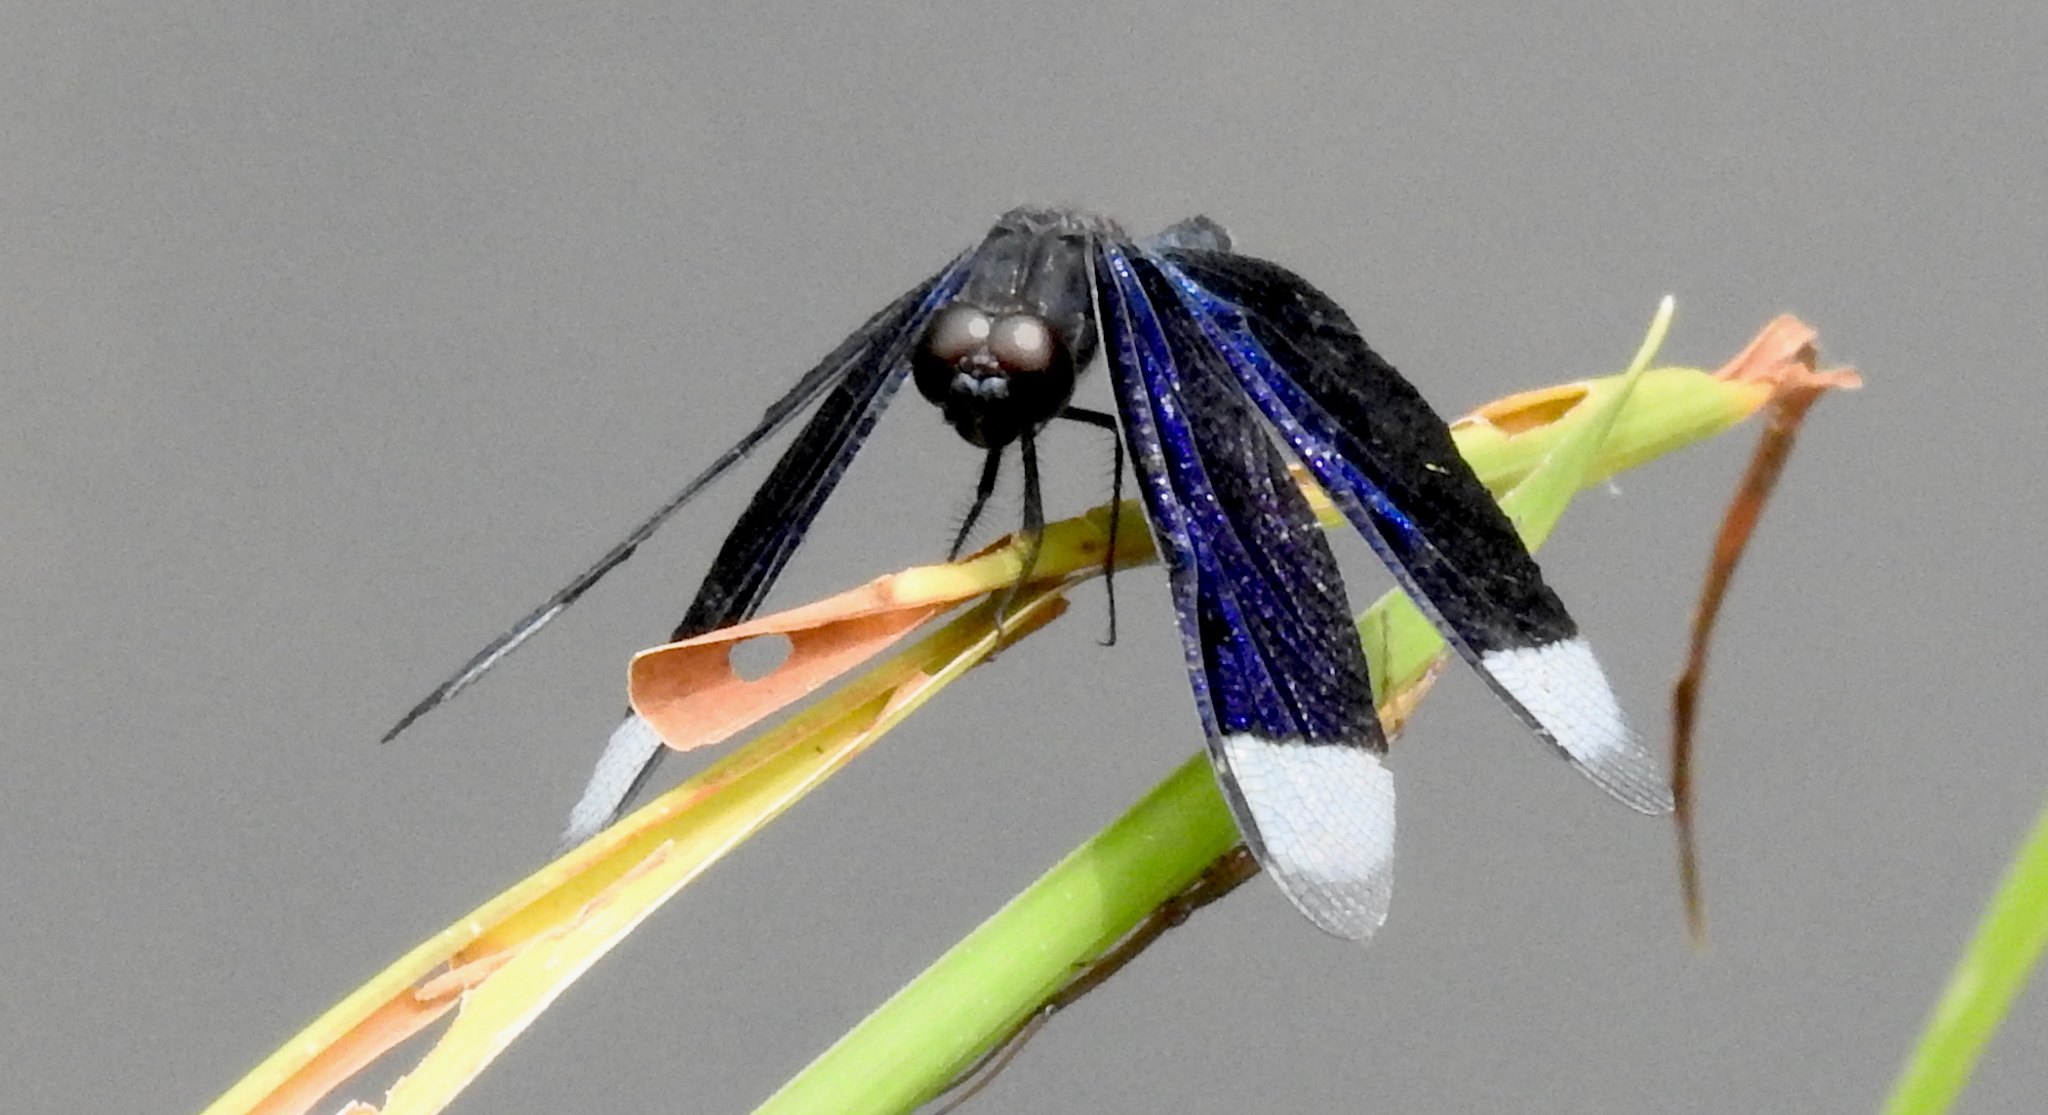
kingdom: Animalia
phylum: Arthropoda
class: Insecta
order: Odonata
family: Libellulidae
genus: Neurothemis
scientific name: Neurothemis decora
